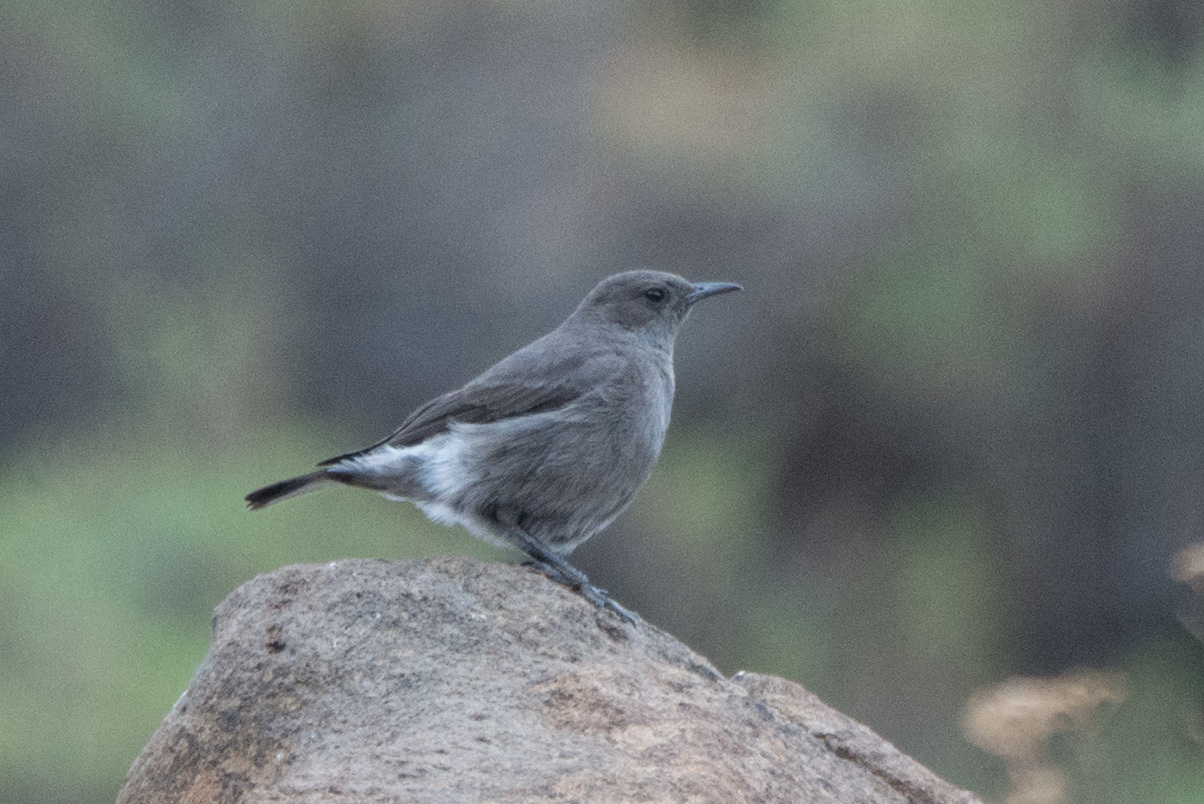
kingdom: Animalia
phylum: Chordata
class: Aves
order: Passeriformes
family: Muscicapidae
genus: Oenanthe
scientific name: Oenanthe monticola
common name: Mountain wheatear
